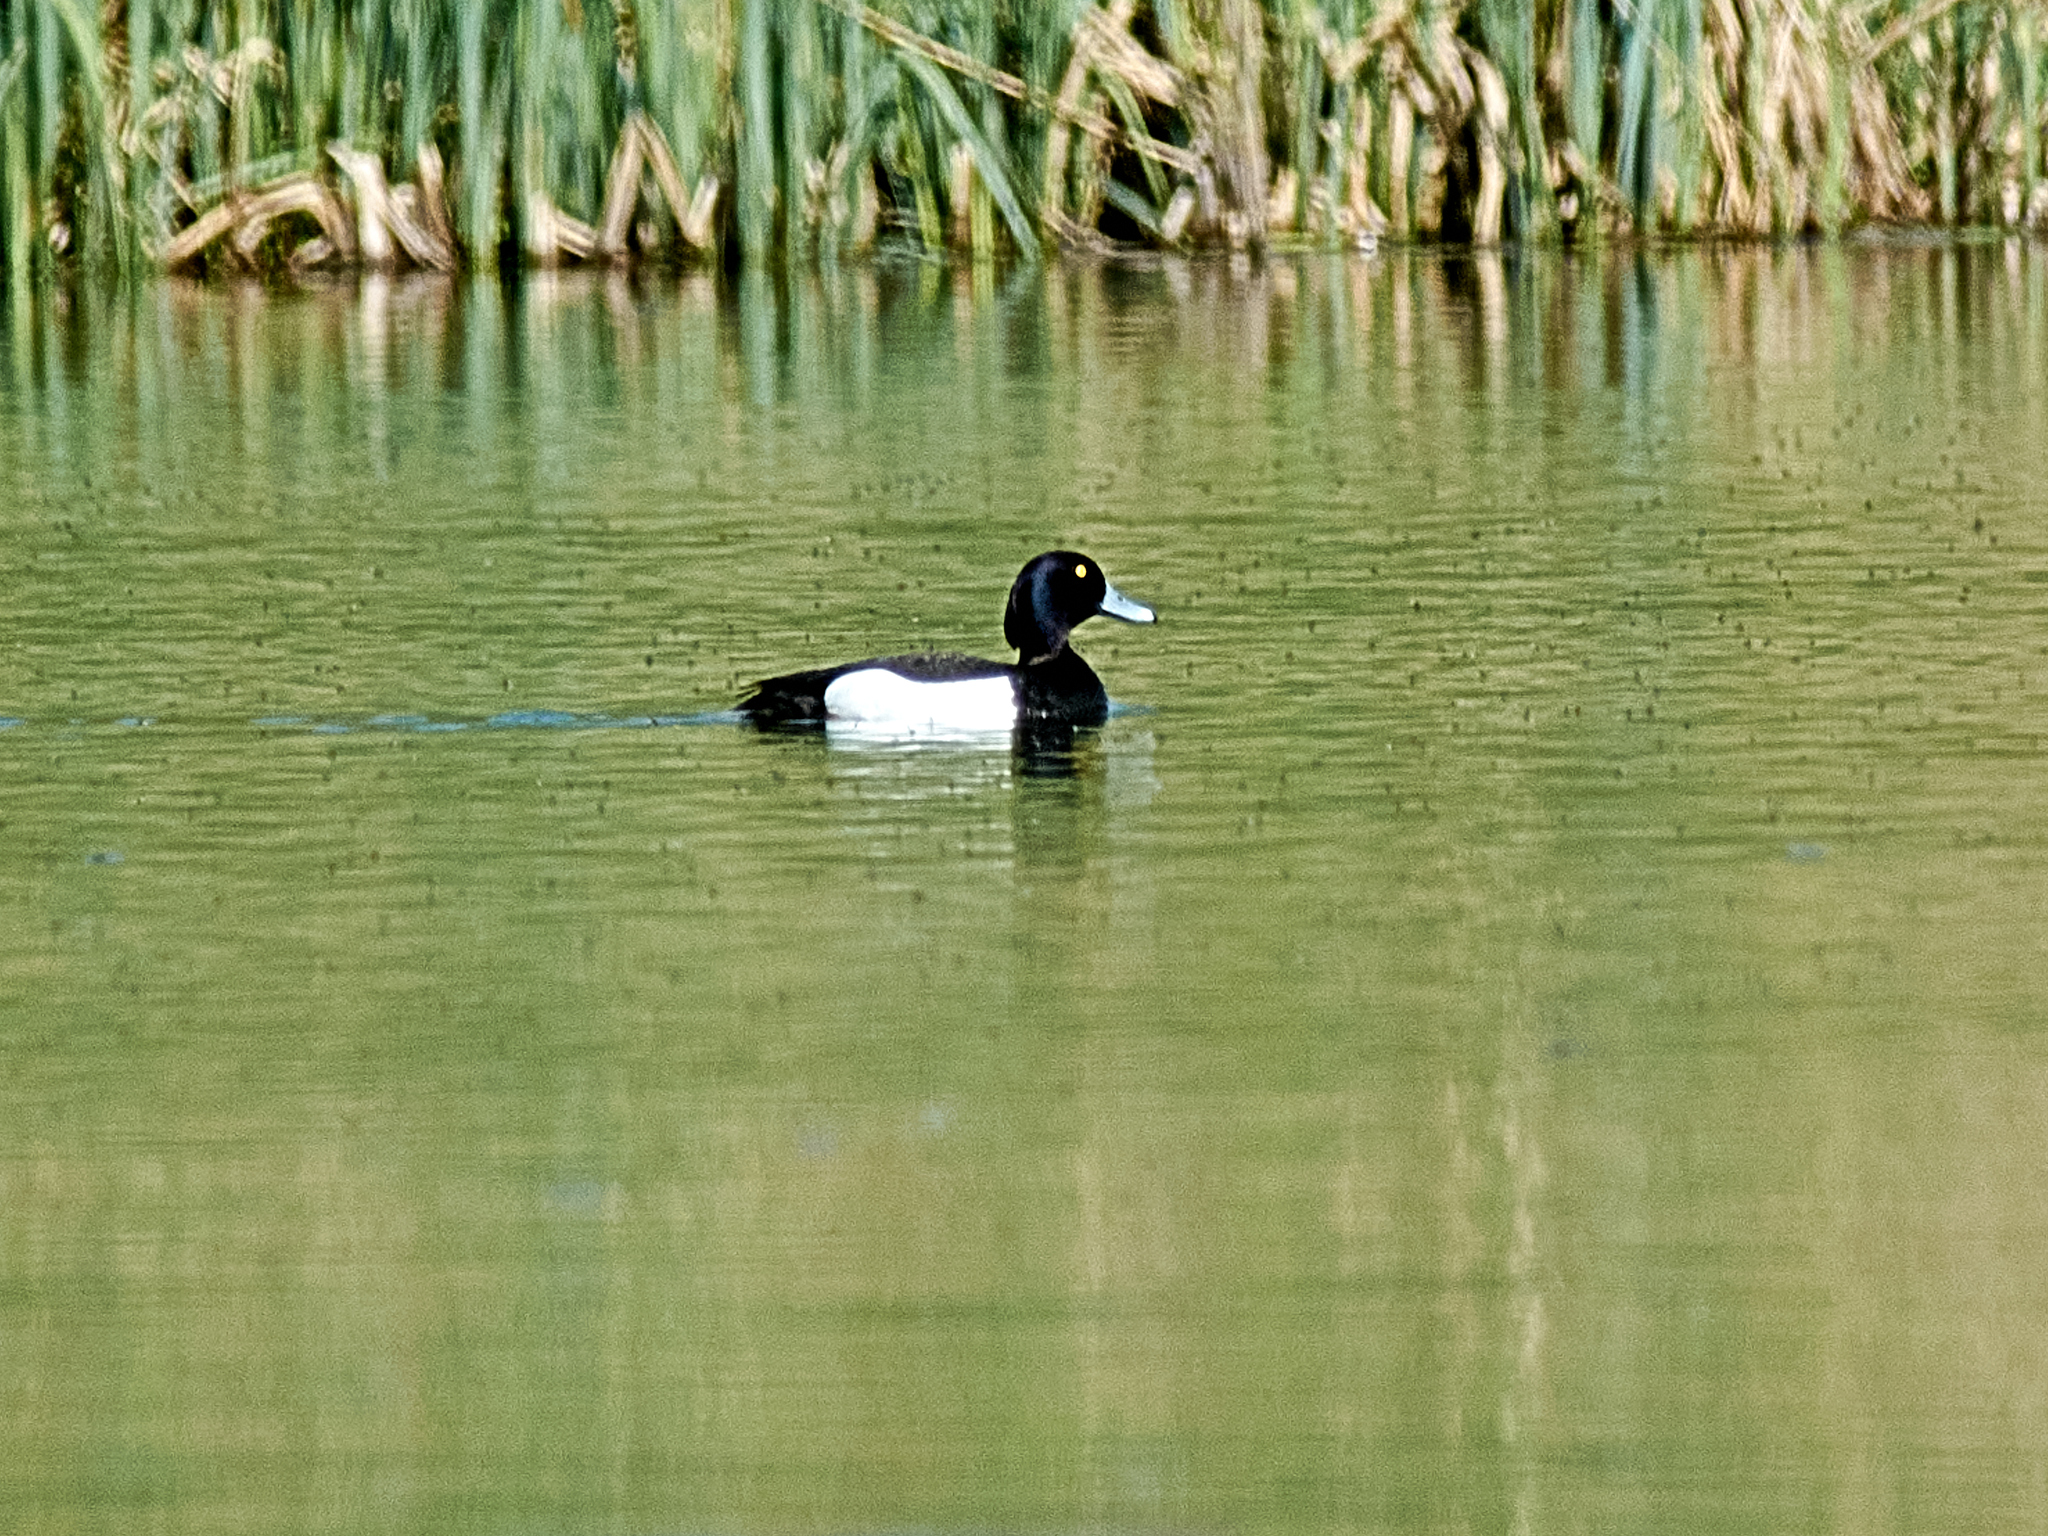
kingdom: Animalia
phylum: Chordata
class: Aves
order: Anseriformes
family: Anatidae
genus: Aythya
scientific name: Aythya fuligula
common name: Tufted duck
